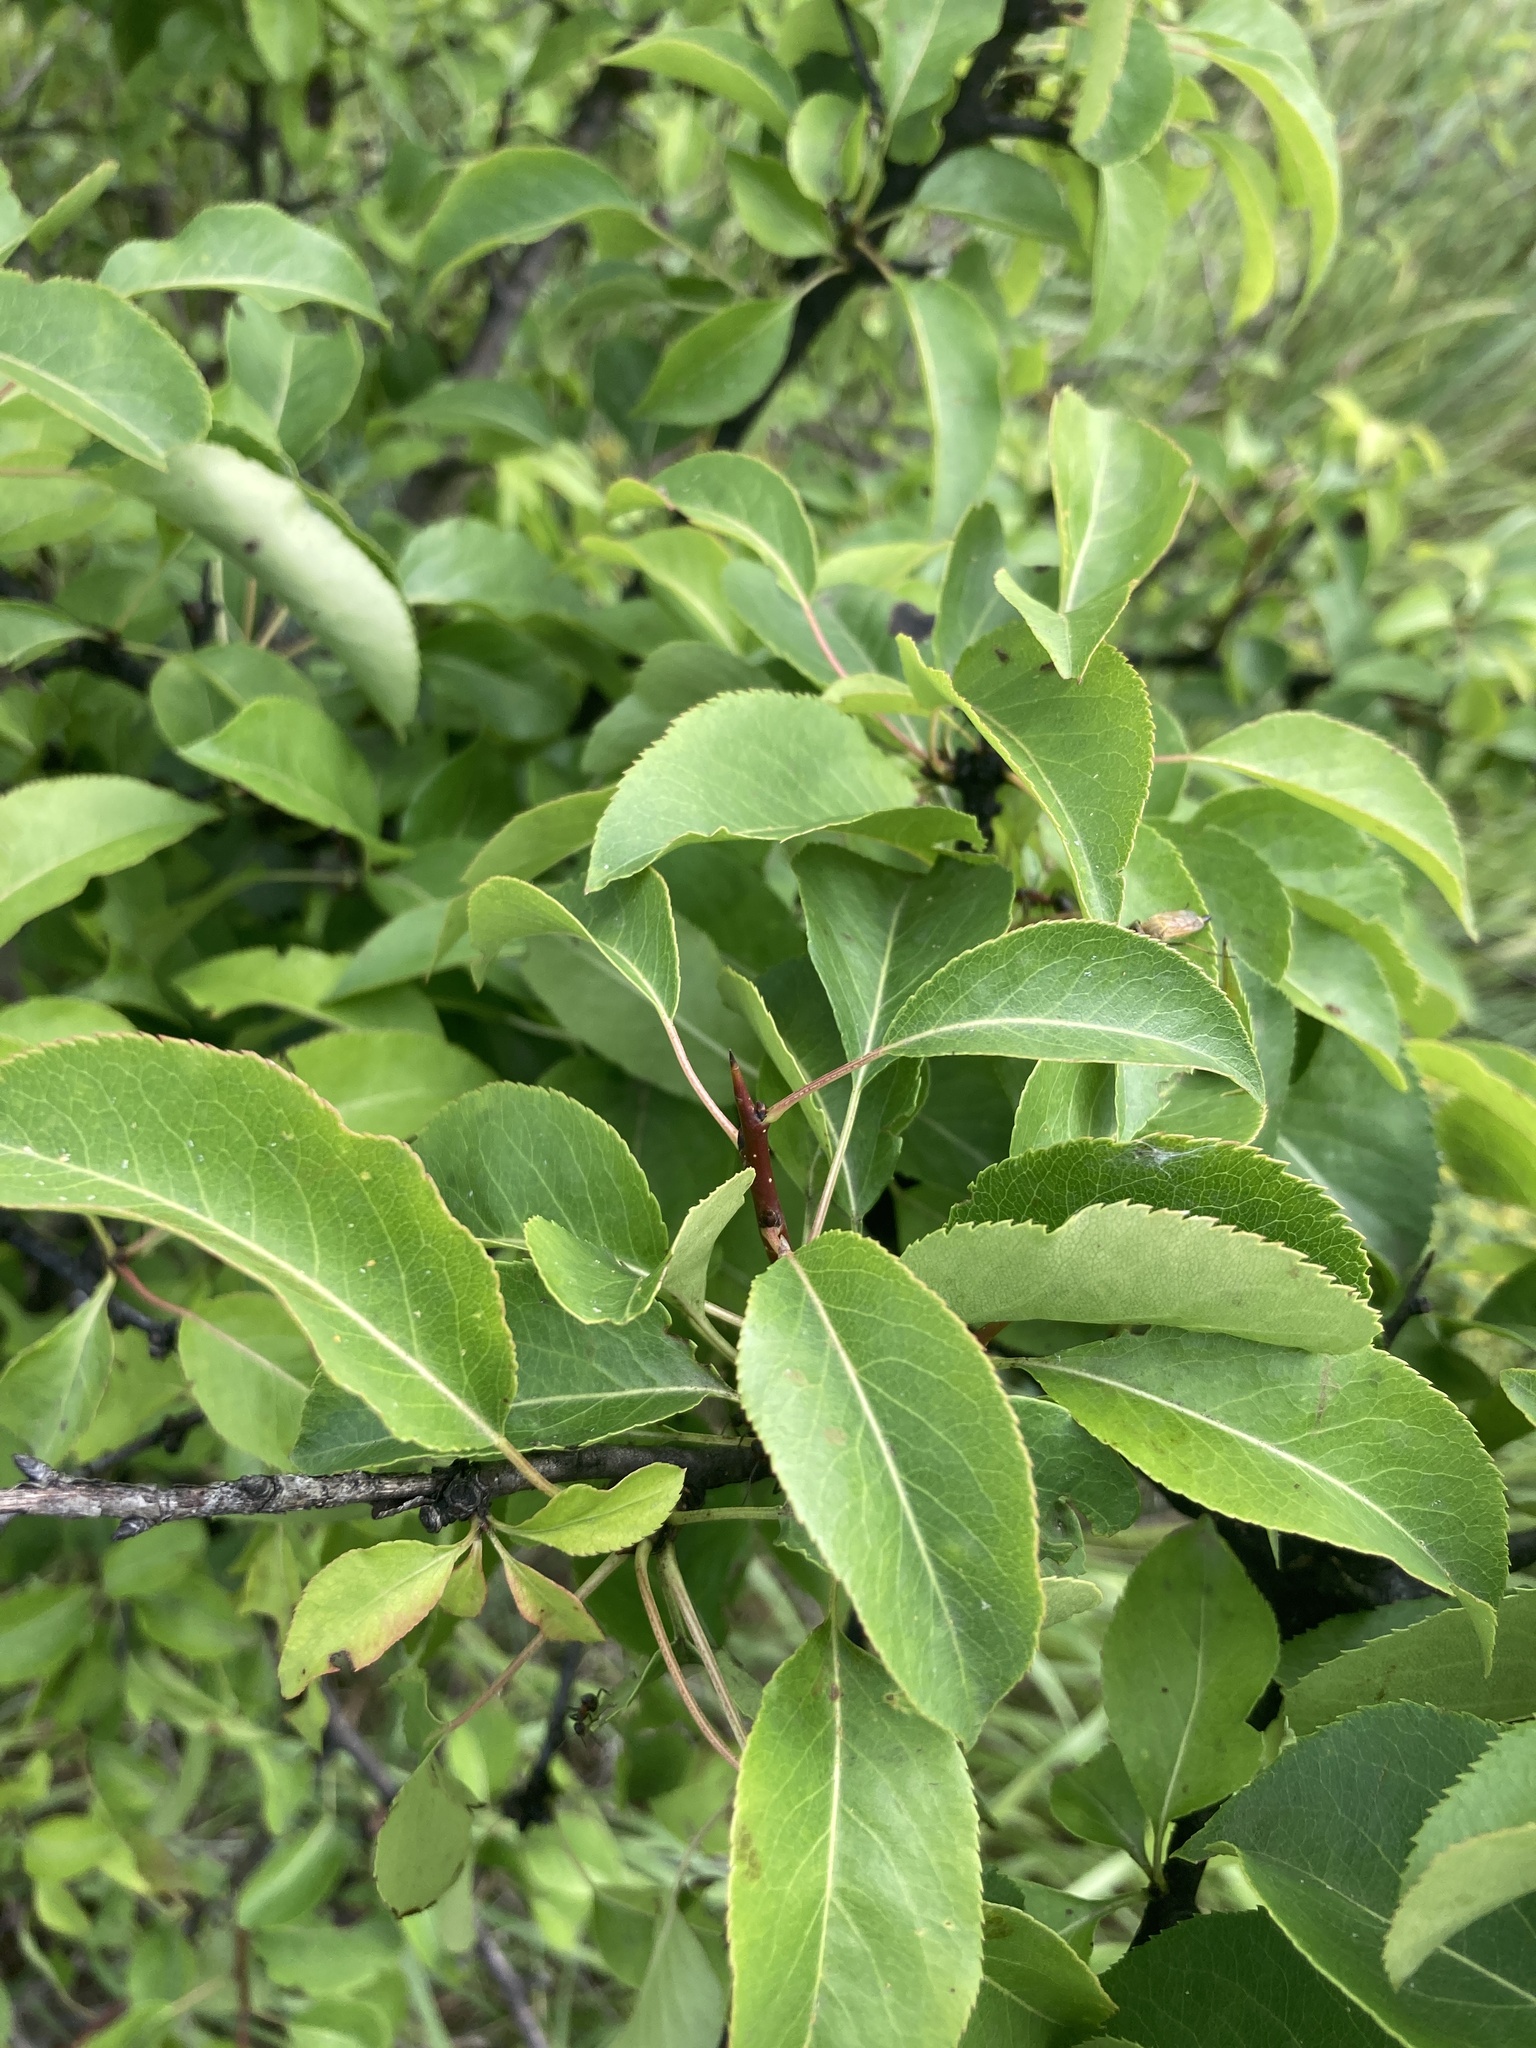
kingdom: Plantae
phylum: Tracheophyta
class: Magnoliopsida
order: Rosales
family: Rosaceae
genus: Pyrus
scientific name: Pyrus communis
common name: Pear
